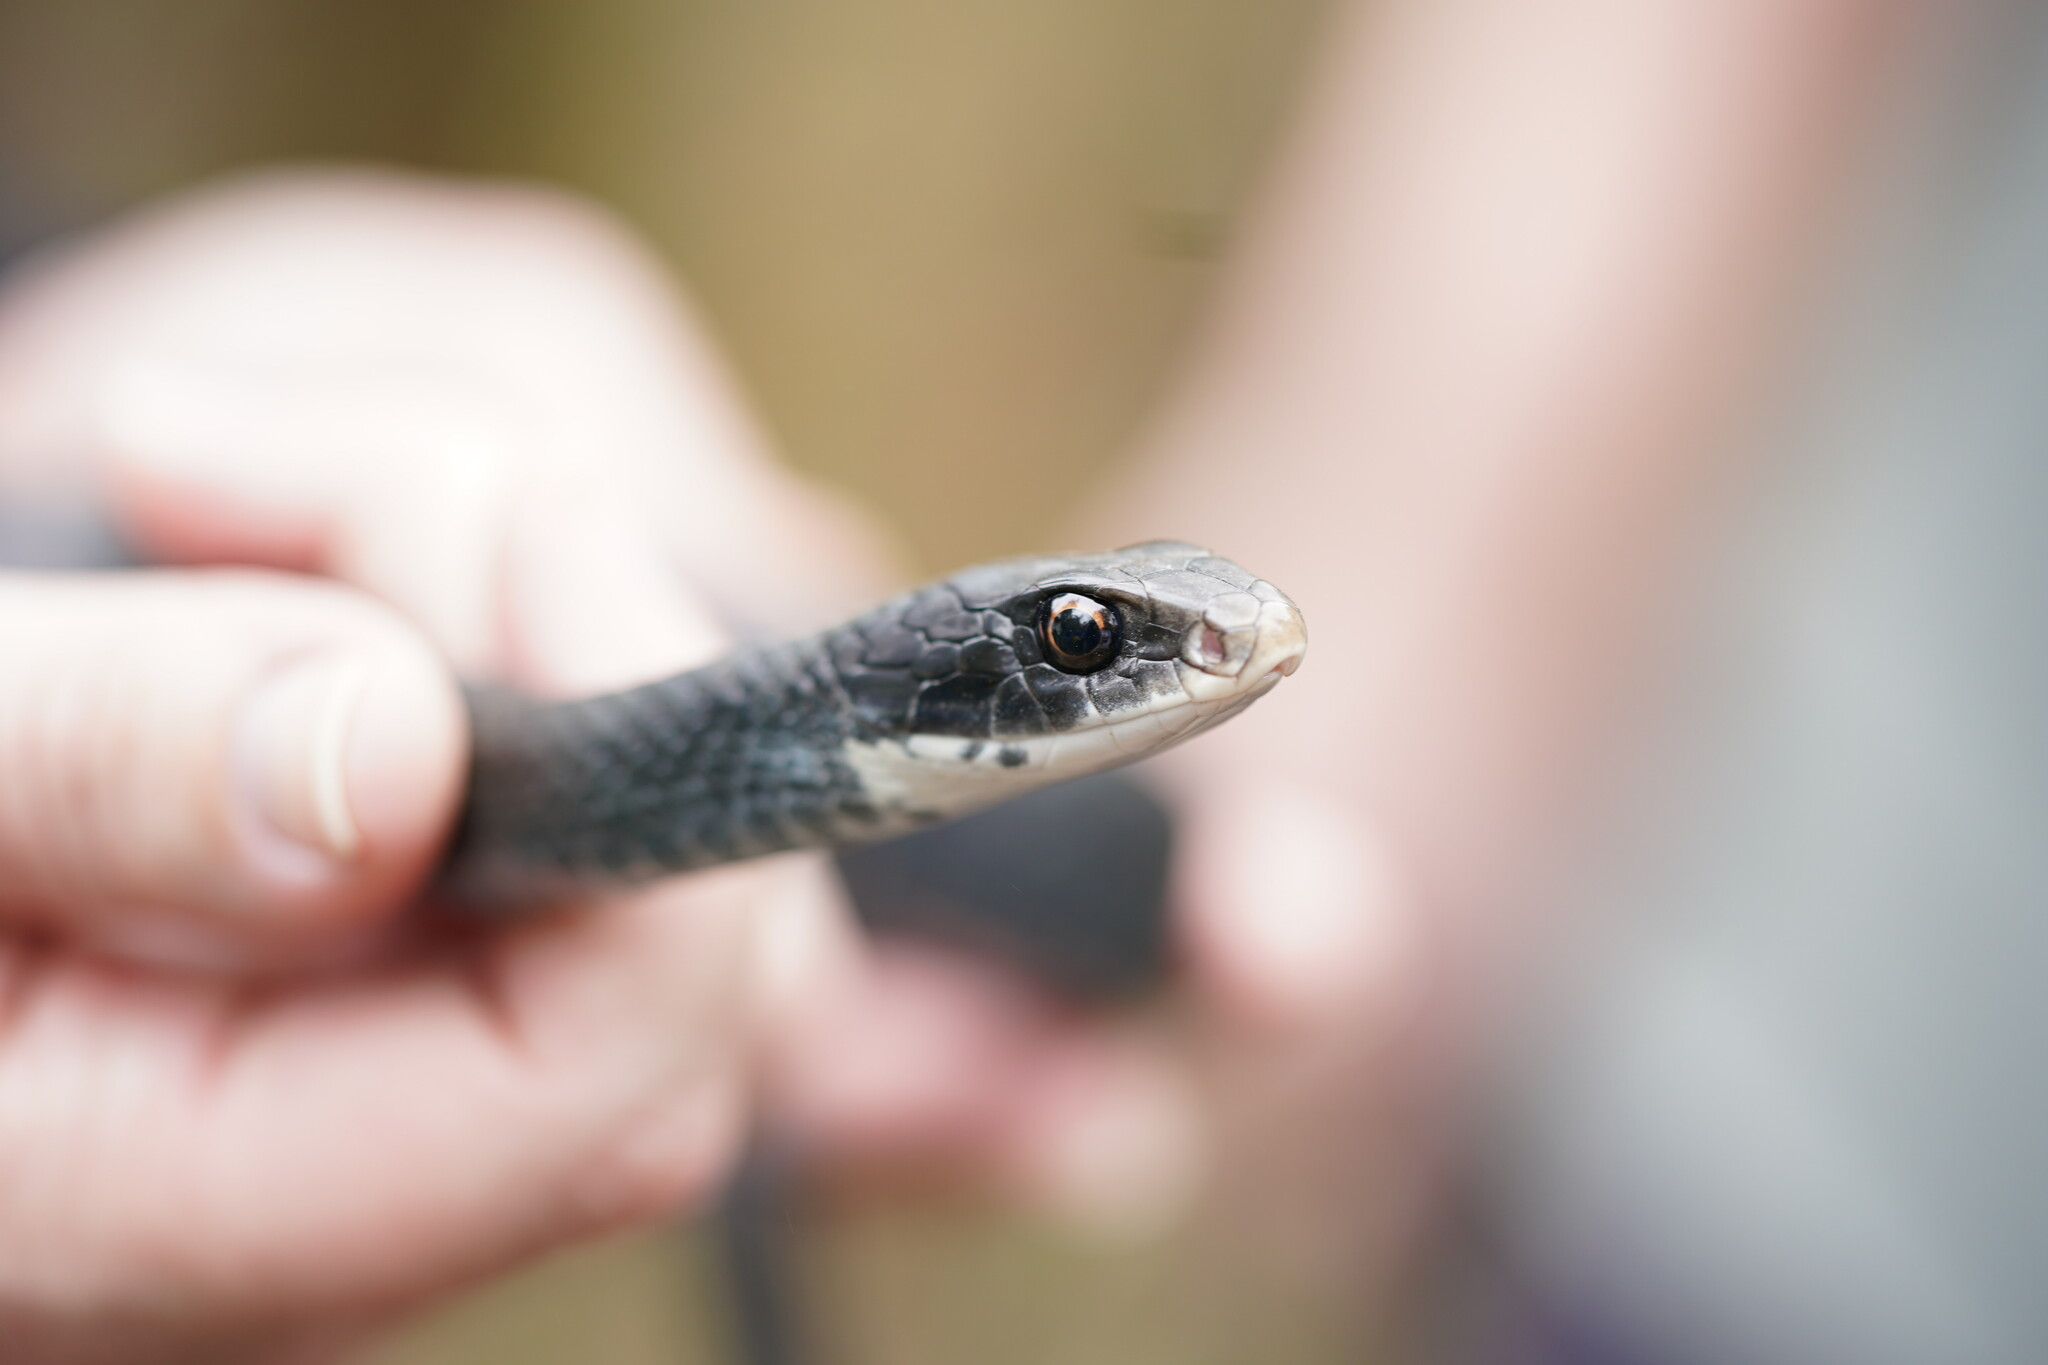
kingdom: Animalia
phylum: Chordata
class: Squamata
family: Colubridae
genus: Coluber
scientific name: Coluber constrictor
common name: Eastern racer
